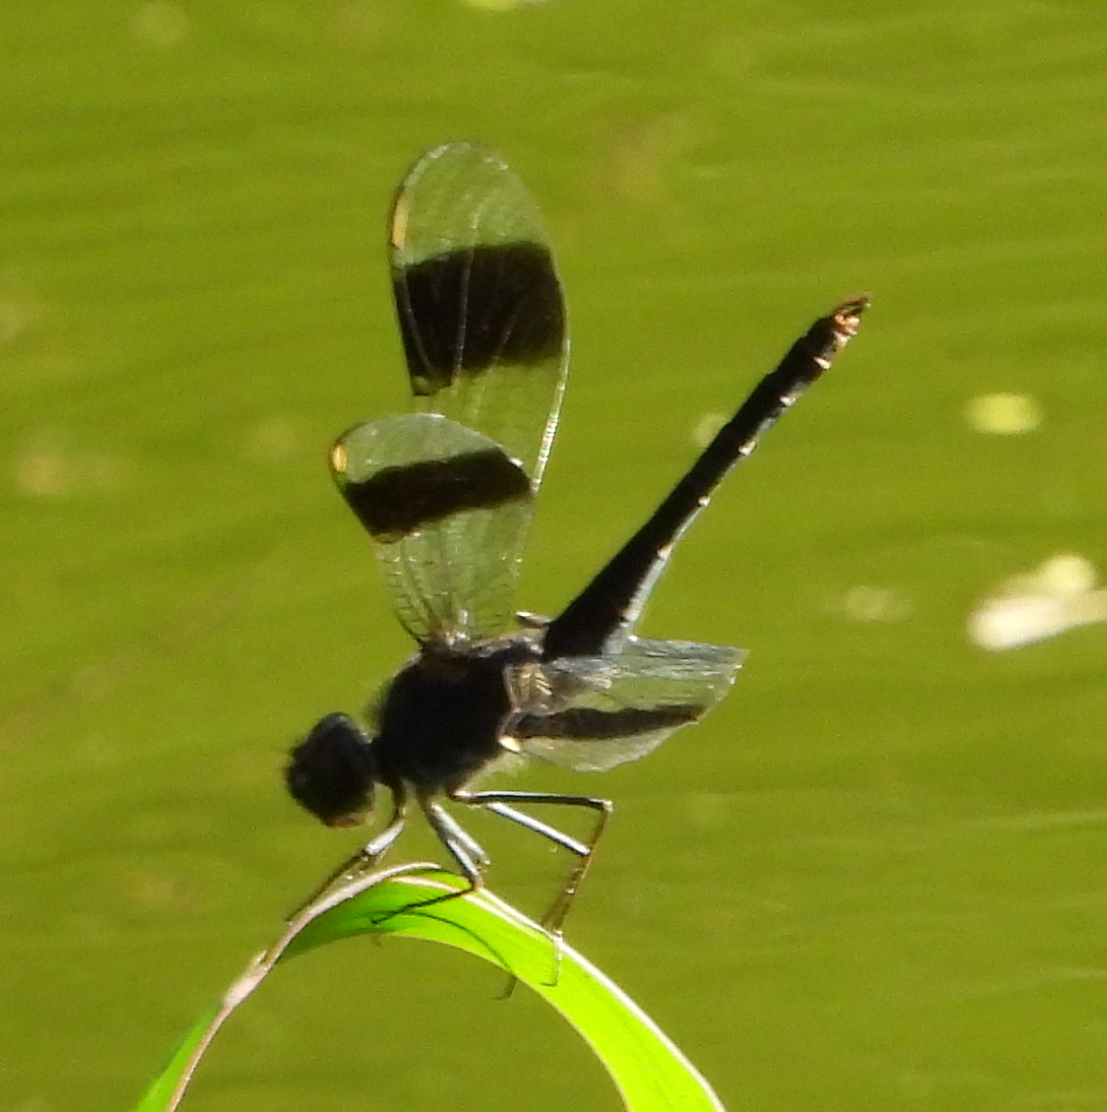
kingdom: Animalia
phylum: Arthropoda
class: Insecta
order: Odonata
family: Libellulidae
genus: Brachythemis
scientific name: Brachythemis leucosticta
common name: Banded groundling
